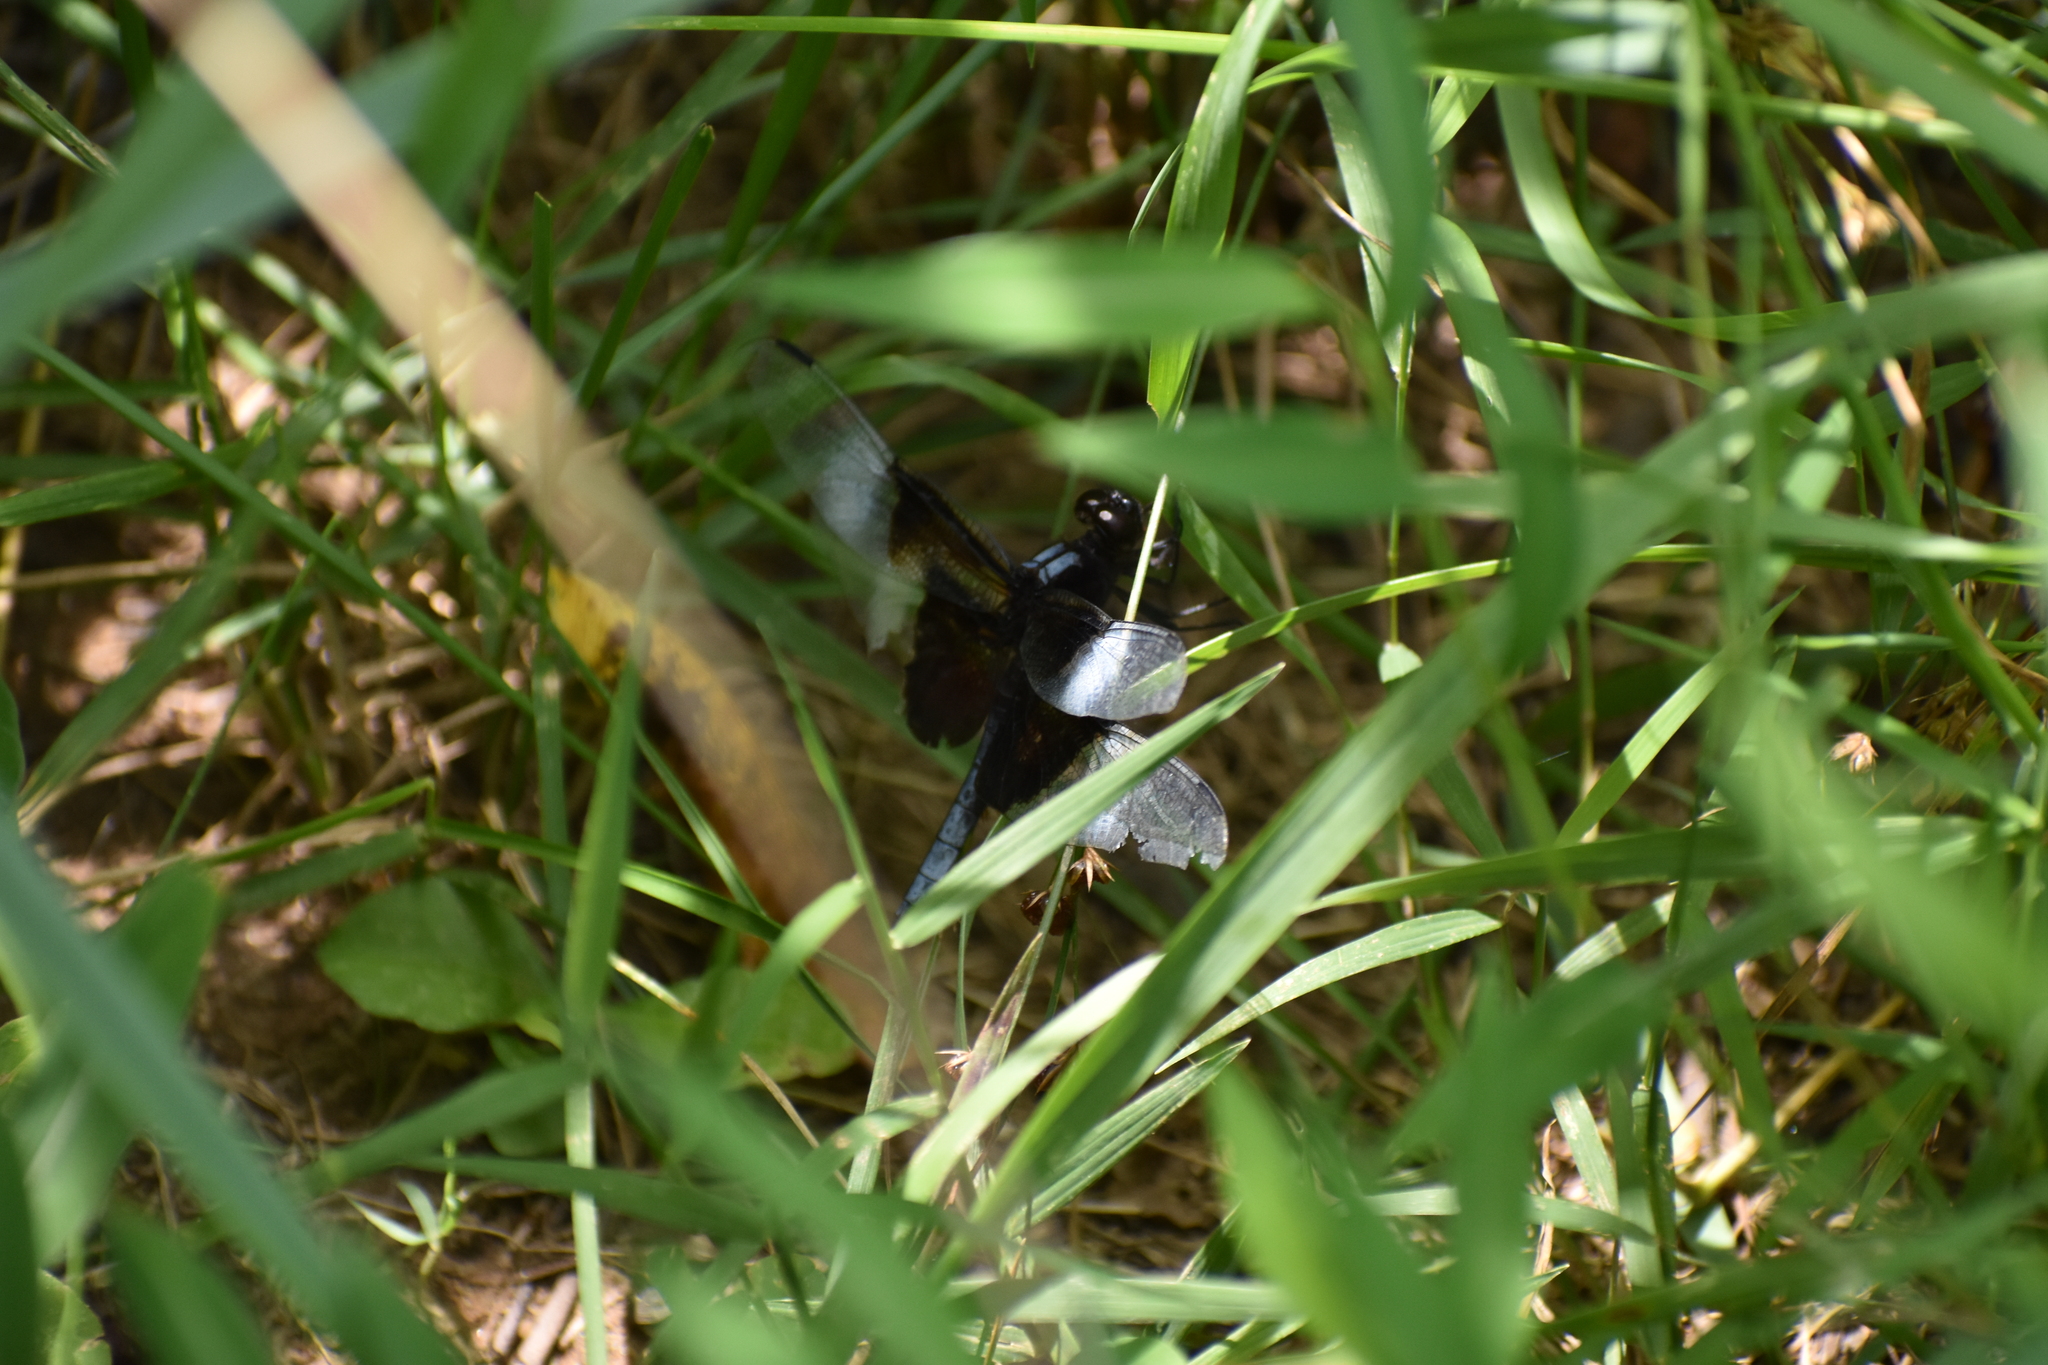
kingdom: Animalia
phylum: Arthropoda
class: Insecta
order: Odonata
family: Libellulidae
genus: Libellula
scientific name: Libellula luctuosa
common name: Widow skimmer
